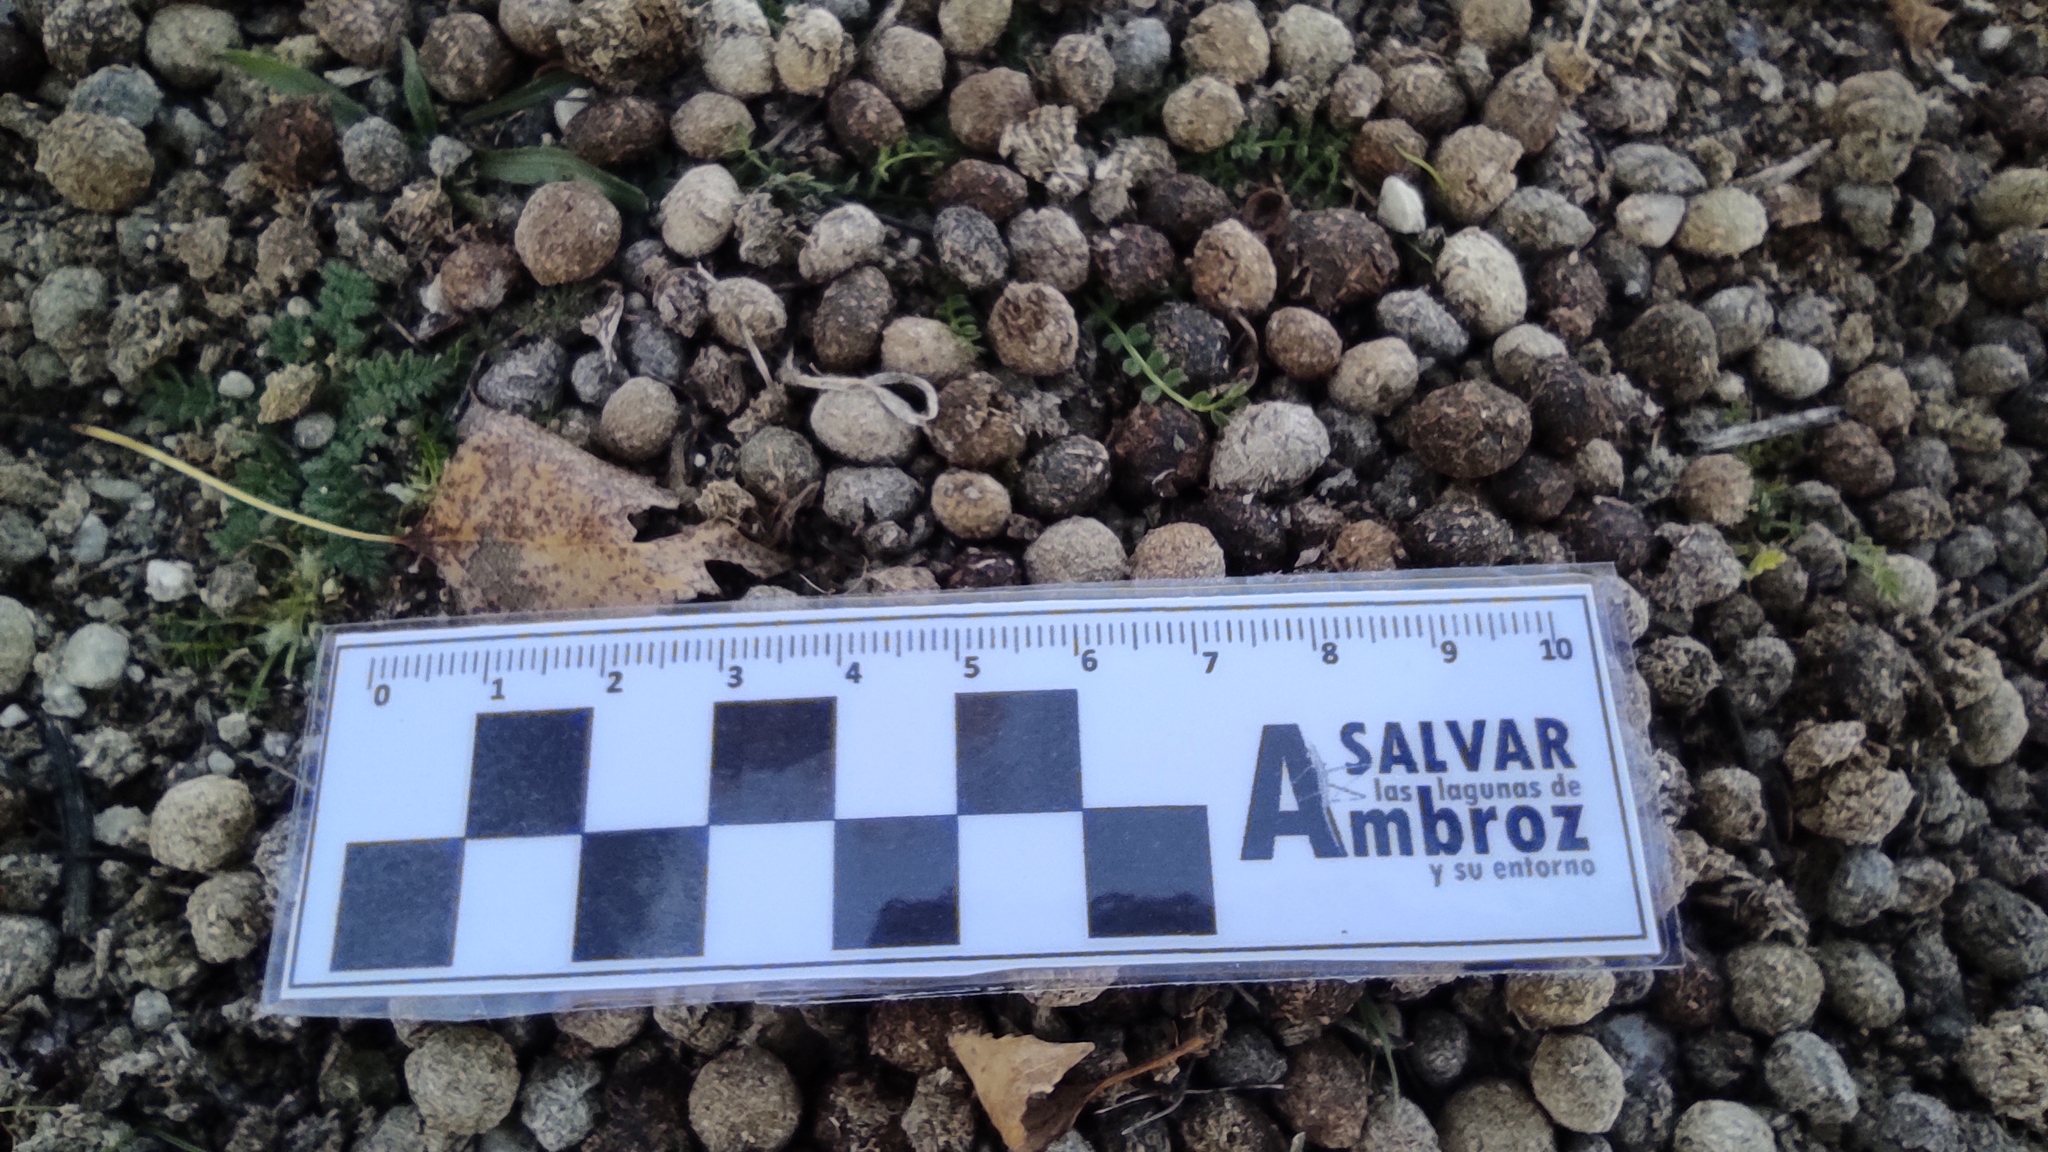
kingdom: Animalia
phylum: Chordata
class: Mammalia
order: Lagomorpha
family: Leporidae
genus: Oryctolagus
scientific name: Oryctolagus cuniculus
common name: European rabbit
